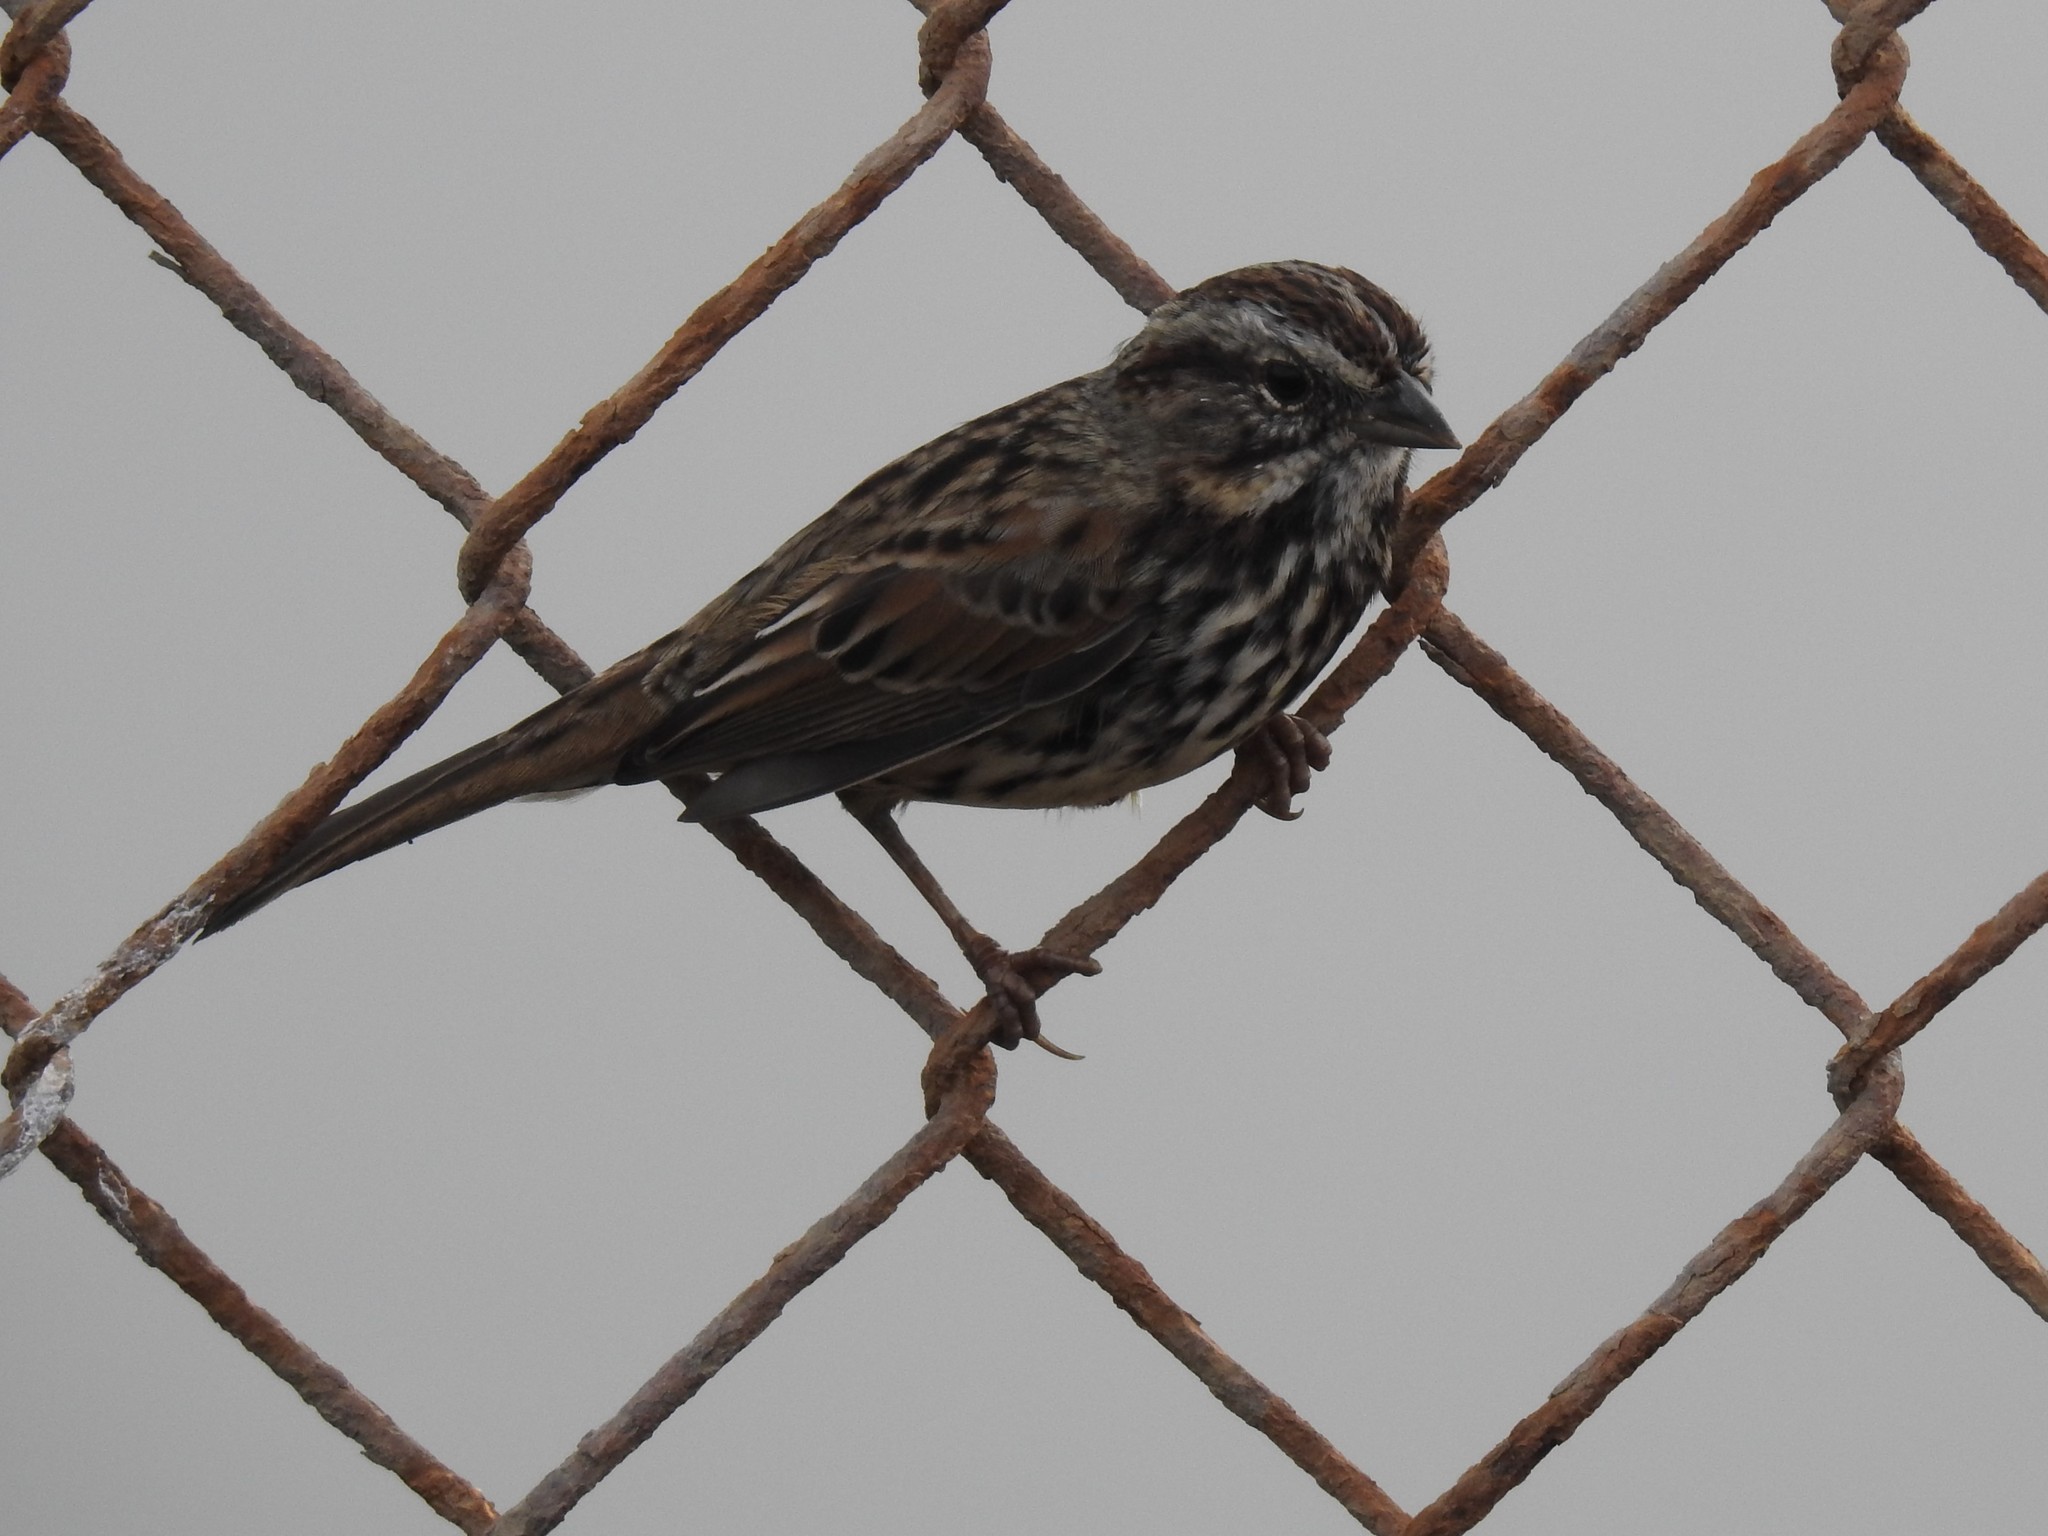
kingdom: Animalia
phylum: Chordata
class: Aves
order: Passeriformes
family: Passerellidae
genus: Melospiza
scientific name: Melospiza melodia
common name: Song sparrow
